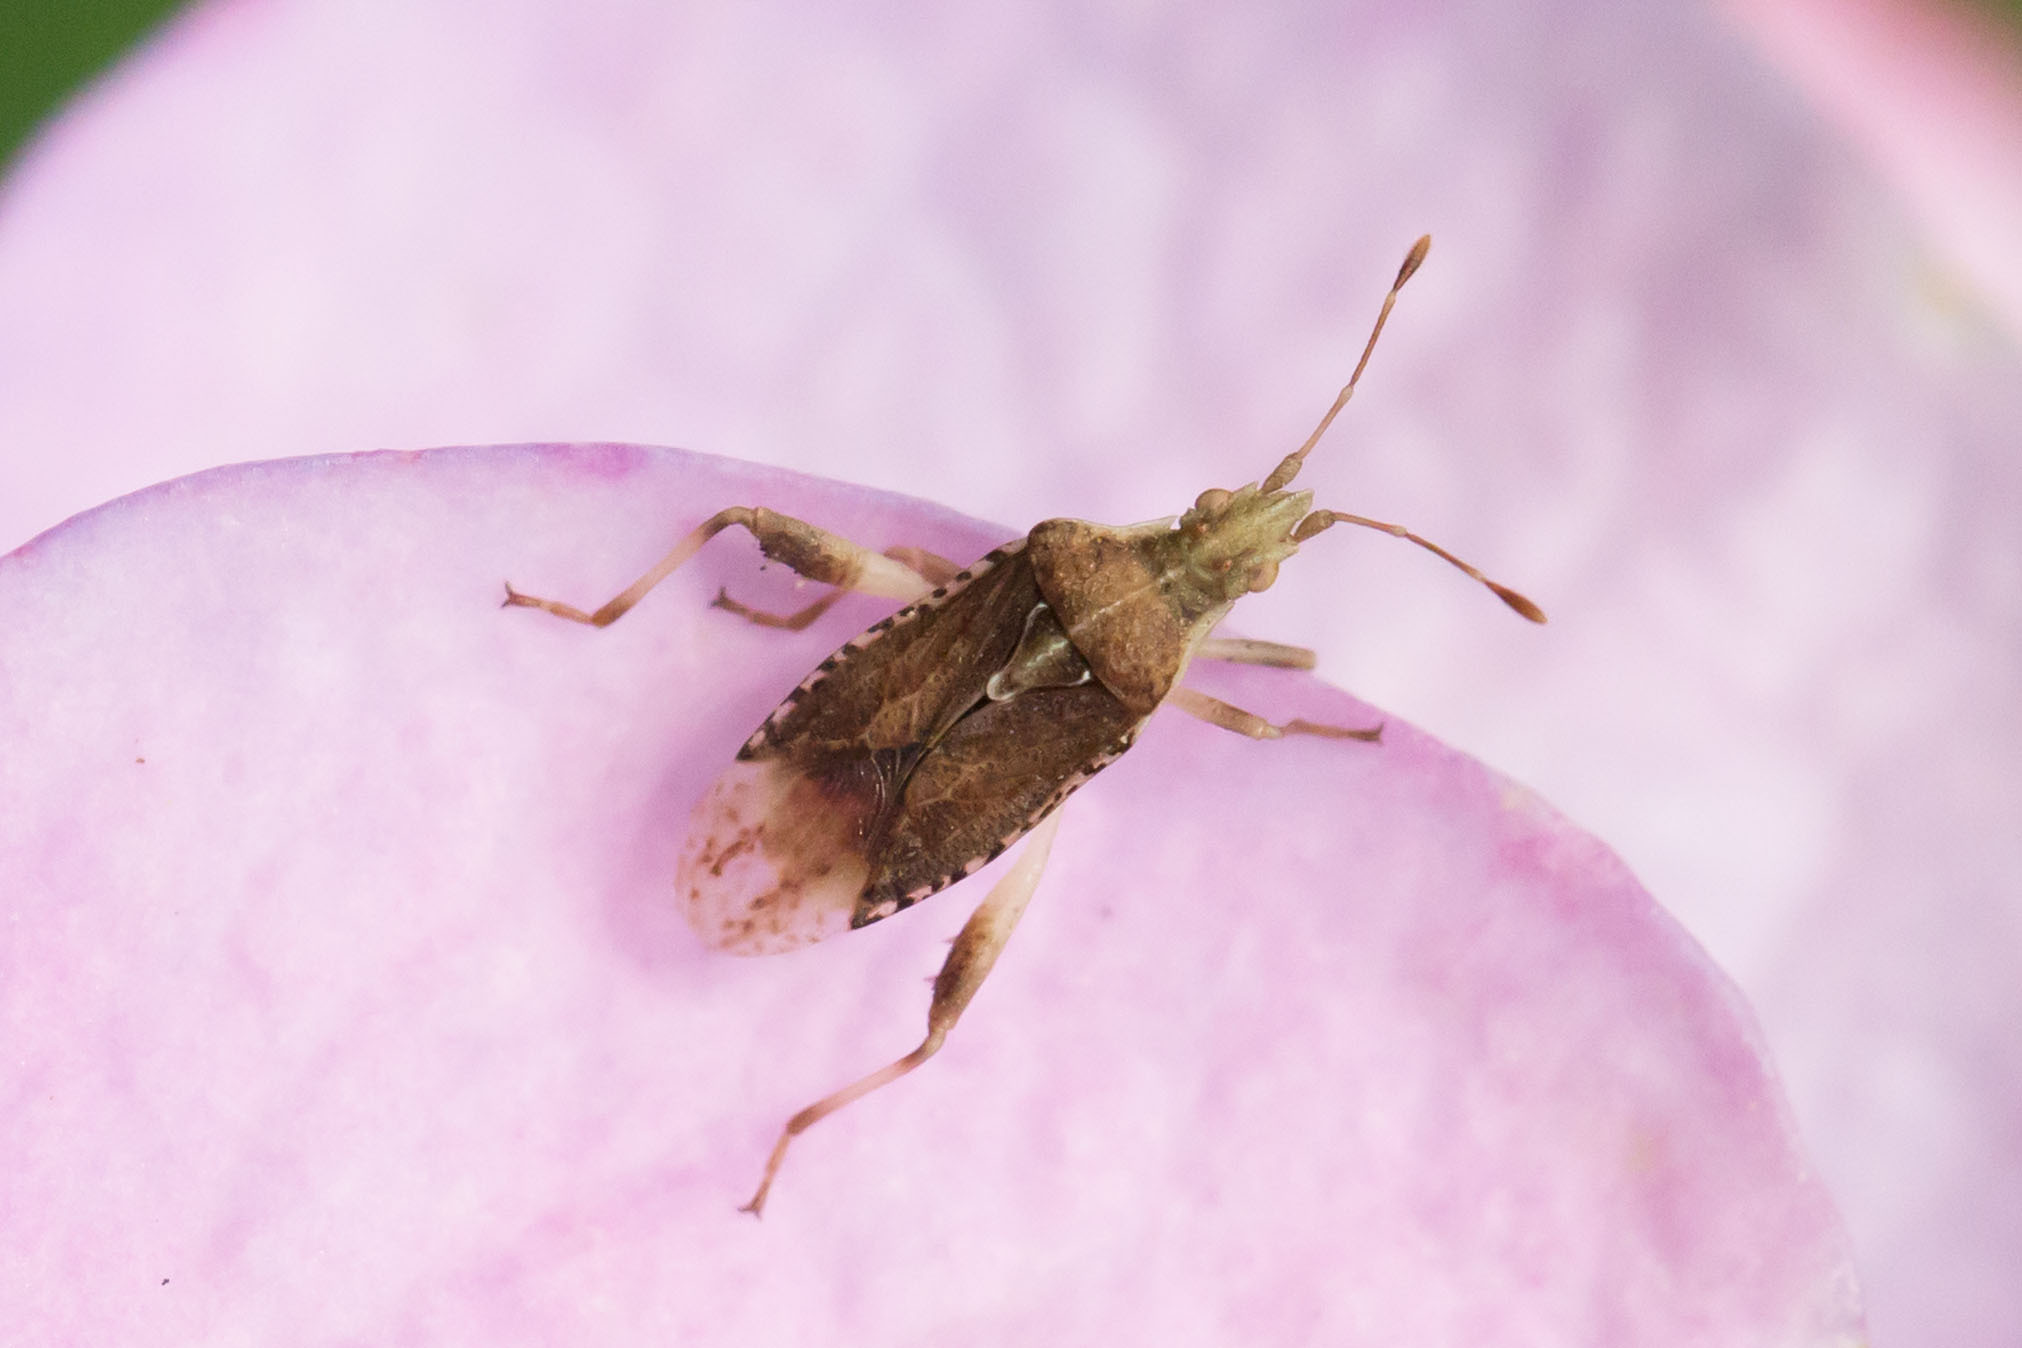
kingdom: Animalia
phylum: Arthropoda
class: Insecta
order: Hemiptera
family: Rhopalidae
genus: Harmostes
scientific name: Harmostes fraterculus
